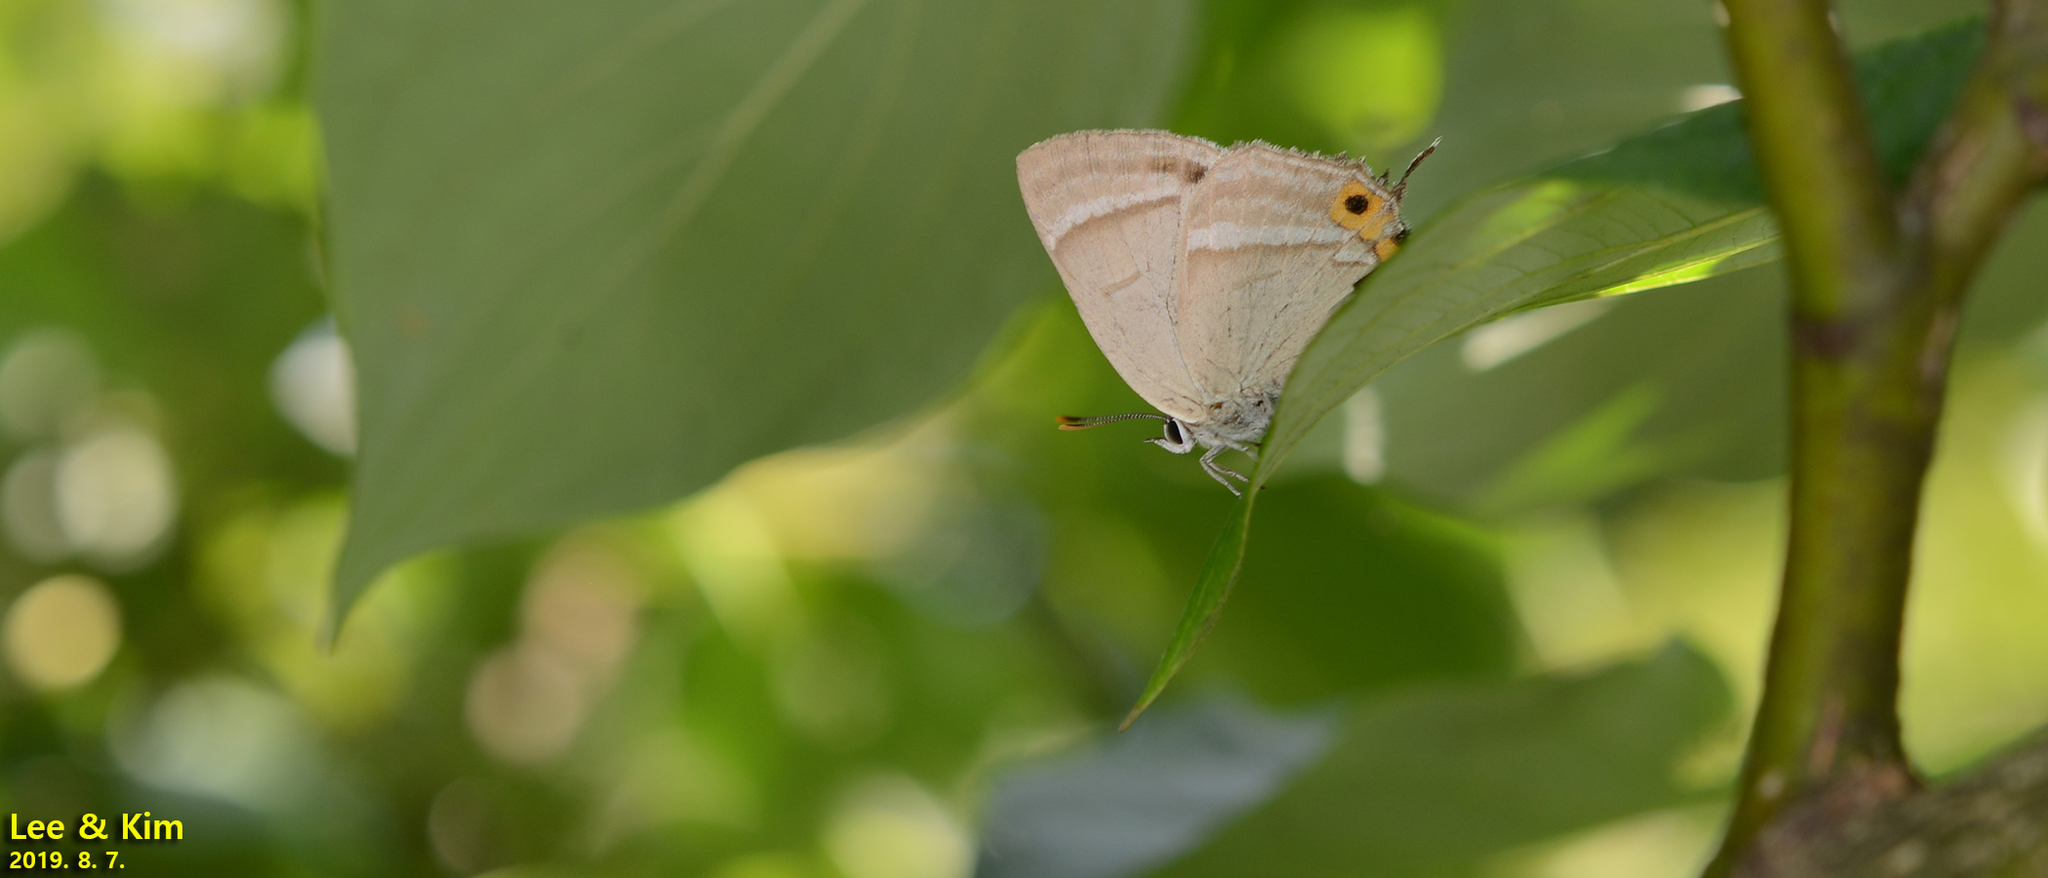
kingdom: Animalia
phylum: Arthropoda
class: Insecta
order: Lepidoptera
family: Lycaenidae
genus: Favonius
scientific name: Favonius cognatus
